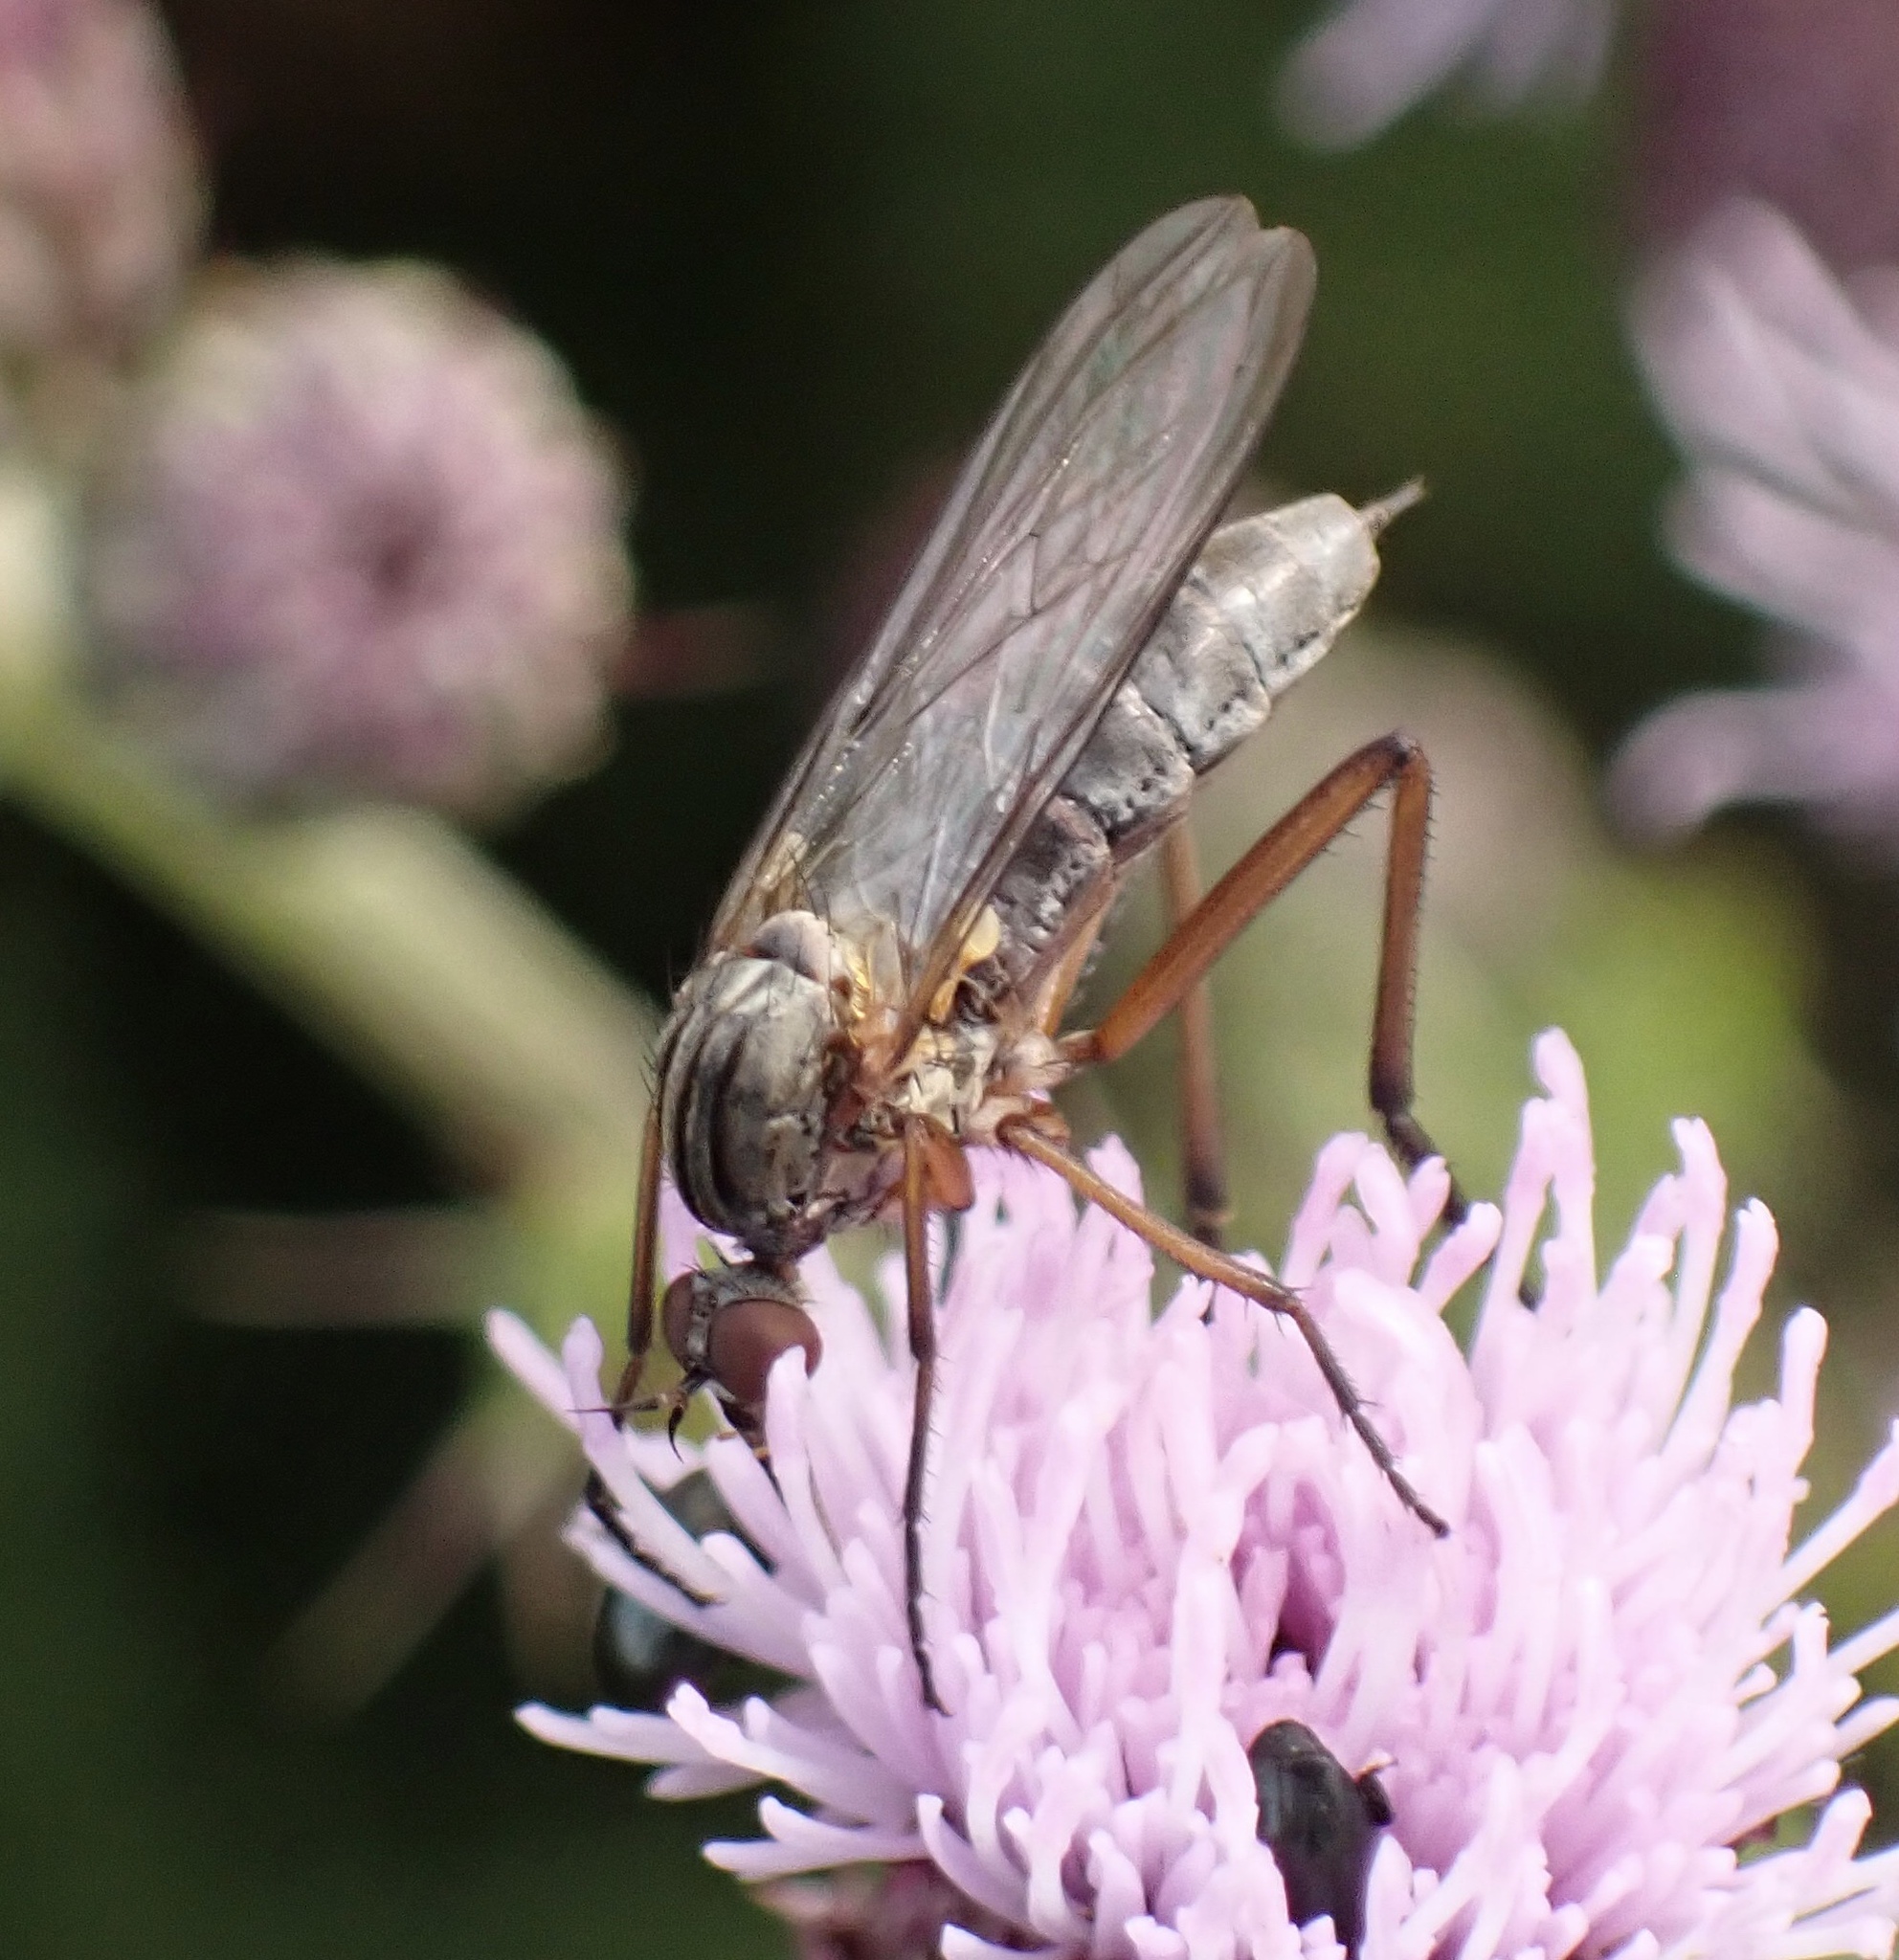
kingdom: Animalia
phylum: Arthropoda
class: Insecta
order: Diptera
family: Empididae
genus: Empis
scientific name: Empis livida
